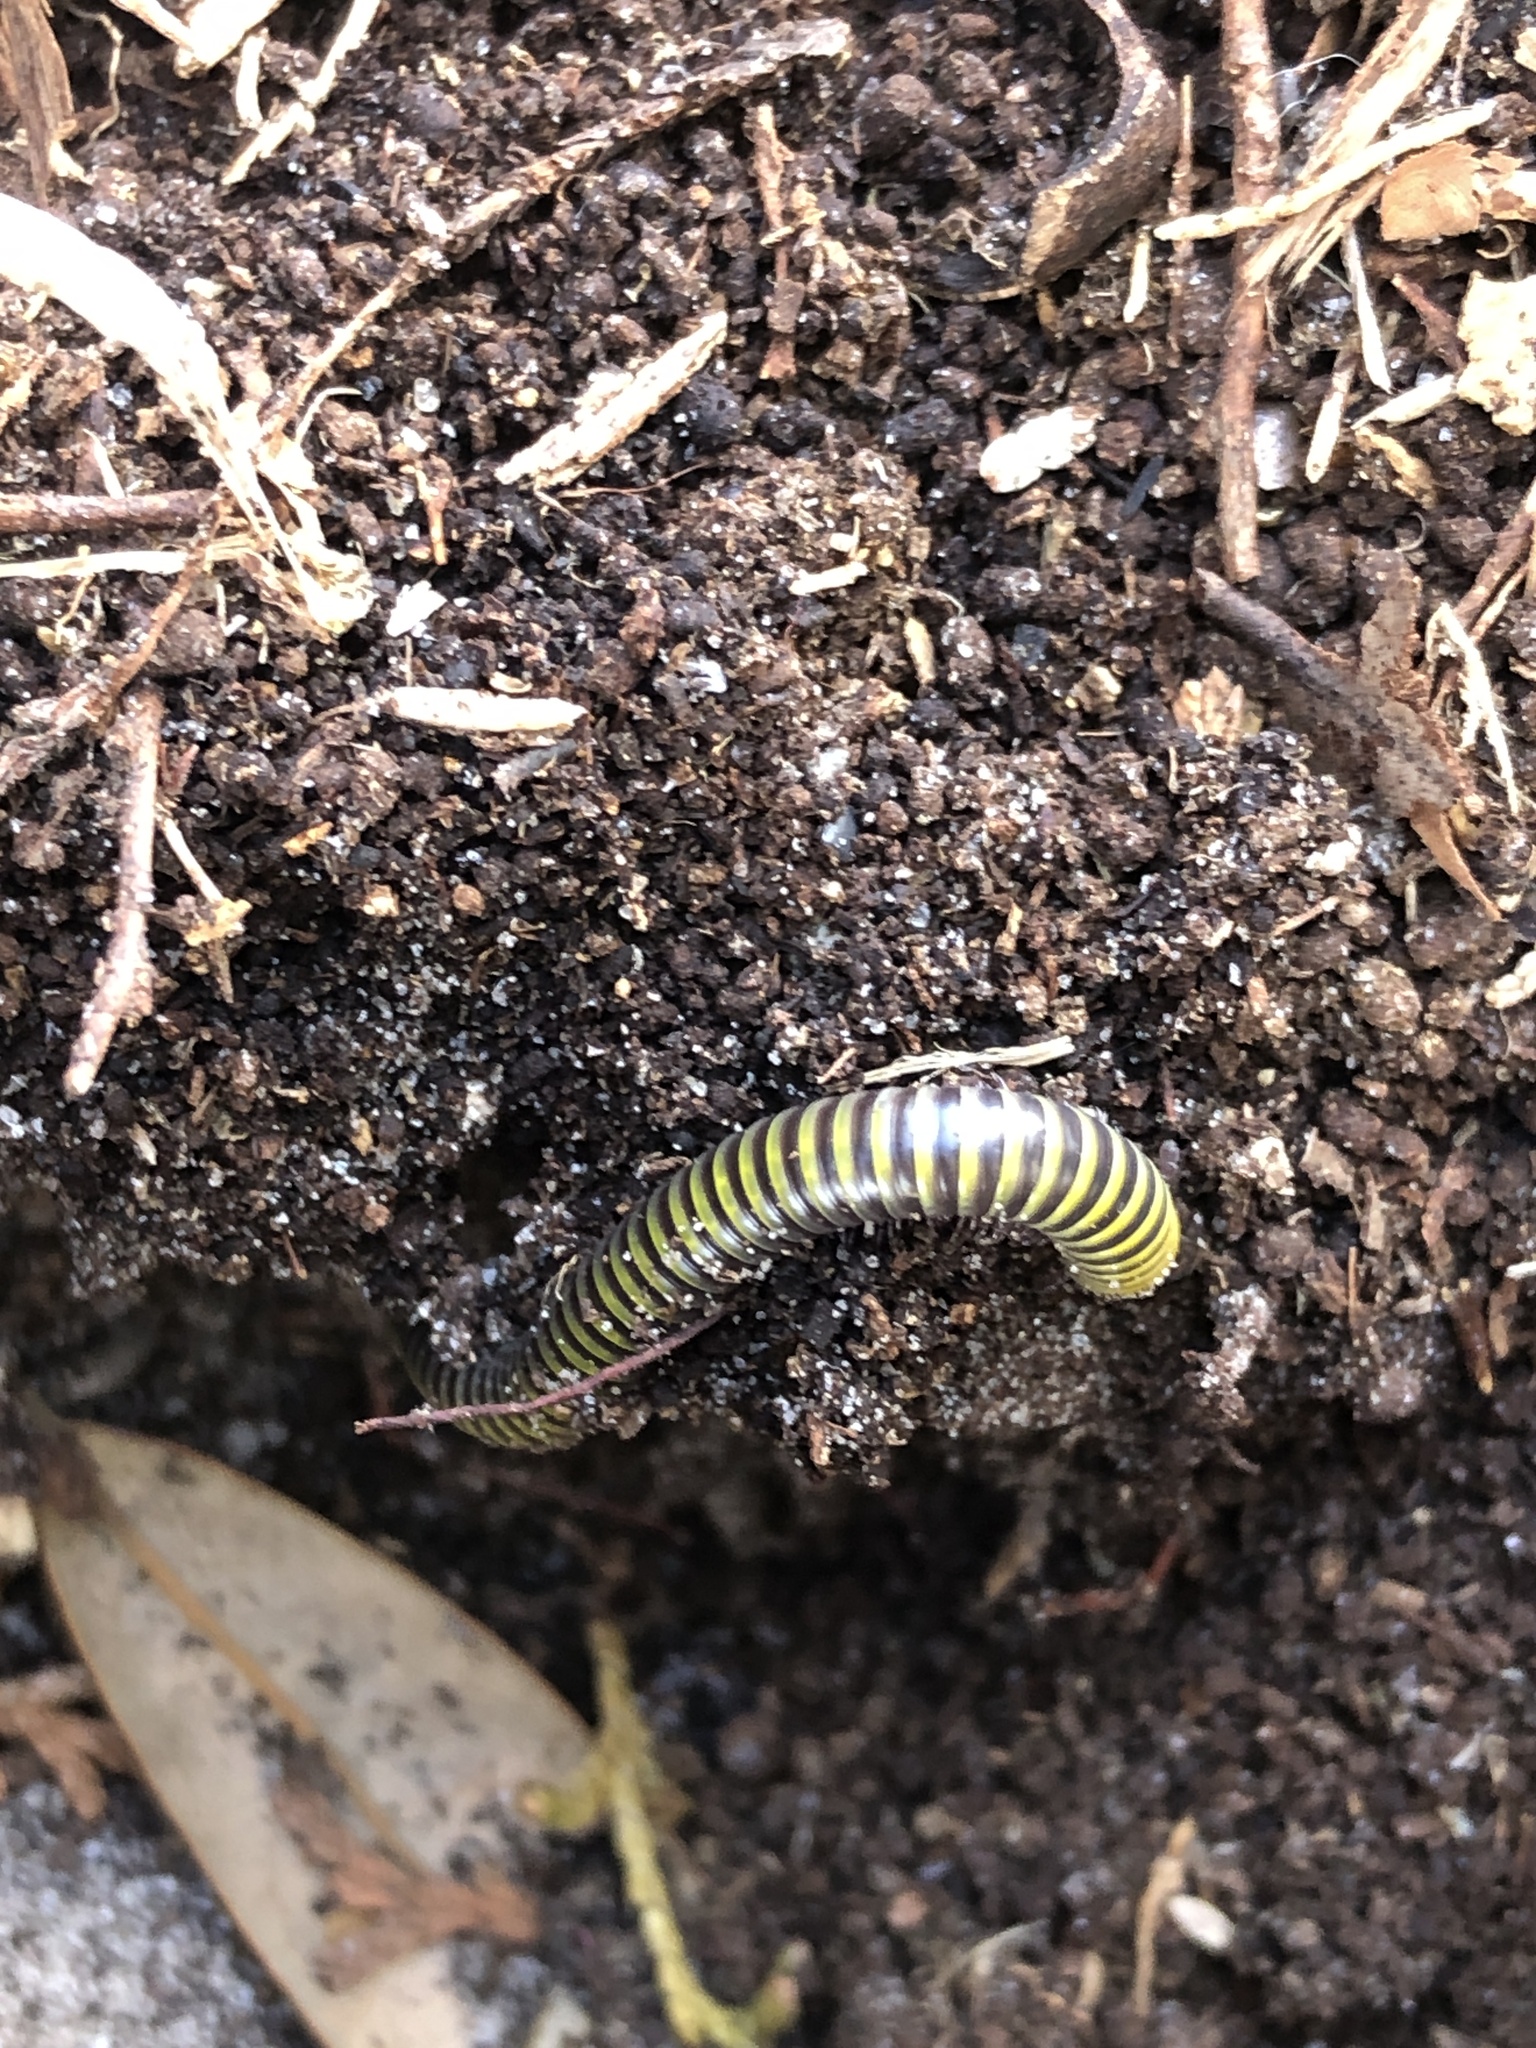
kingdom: Animalia
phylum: Arthropoda
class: Diplopoda
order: Spirobolida
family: Rhinocricidae
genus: Anadenobolus
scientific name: Anadenobolus monilicornis
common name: Caribbean millipede
